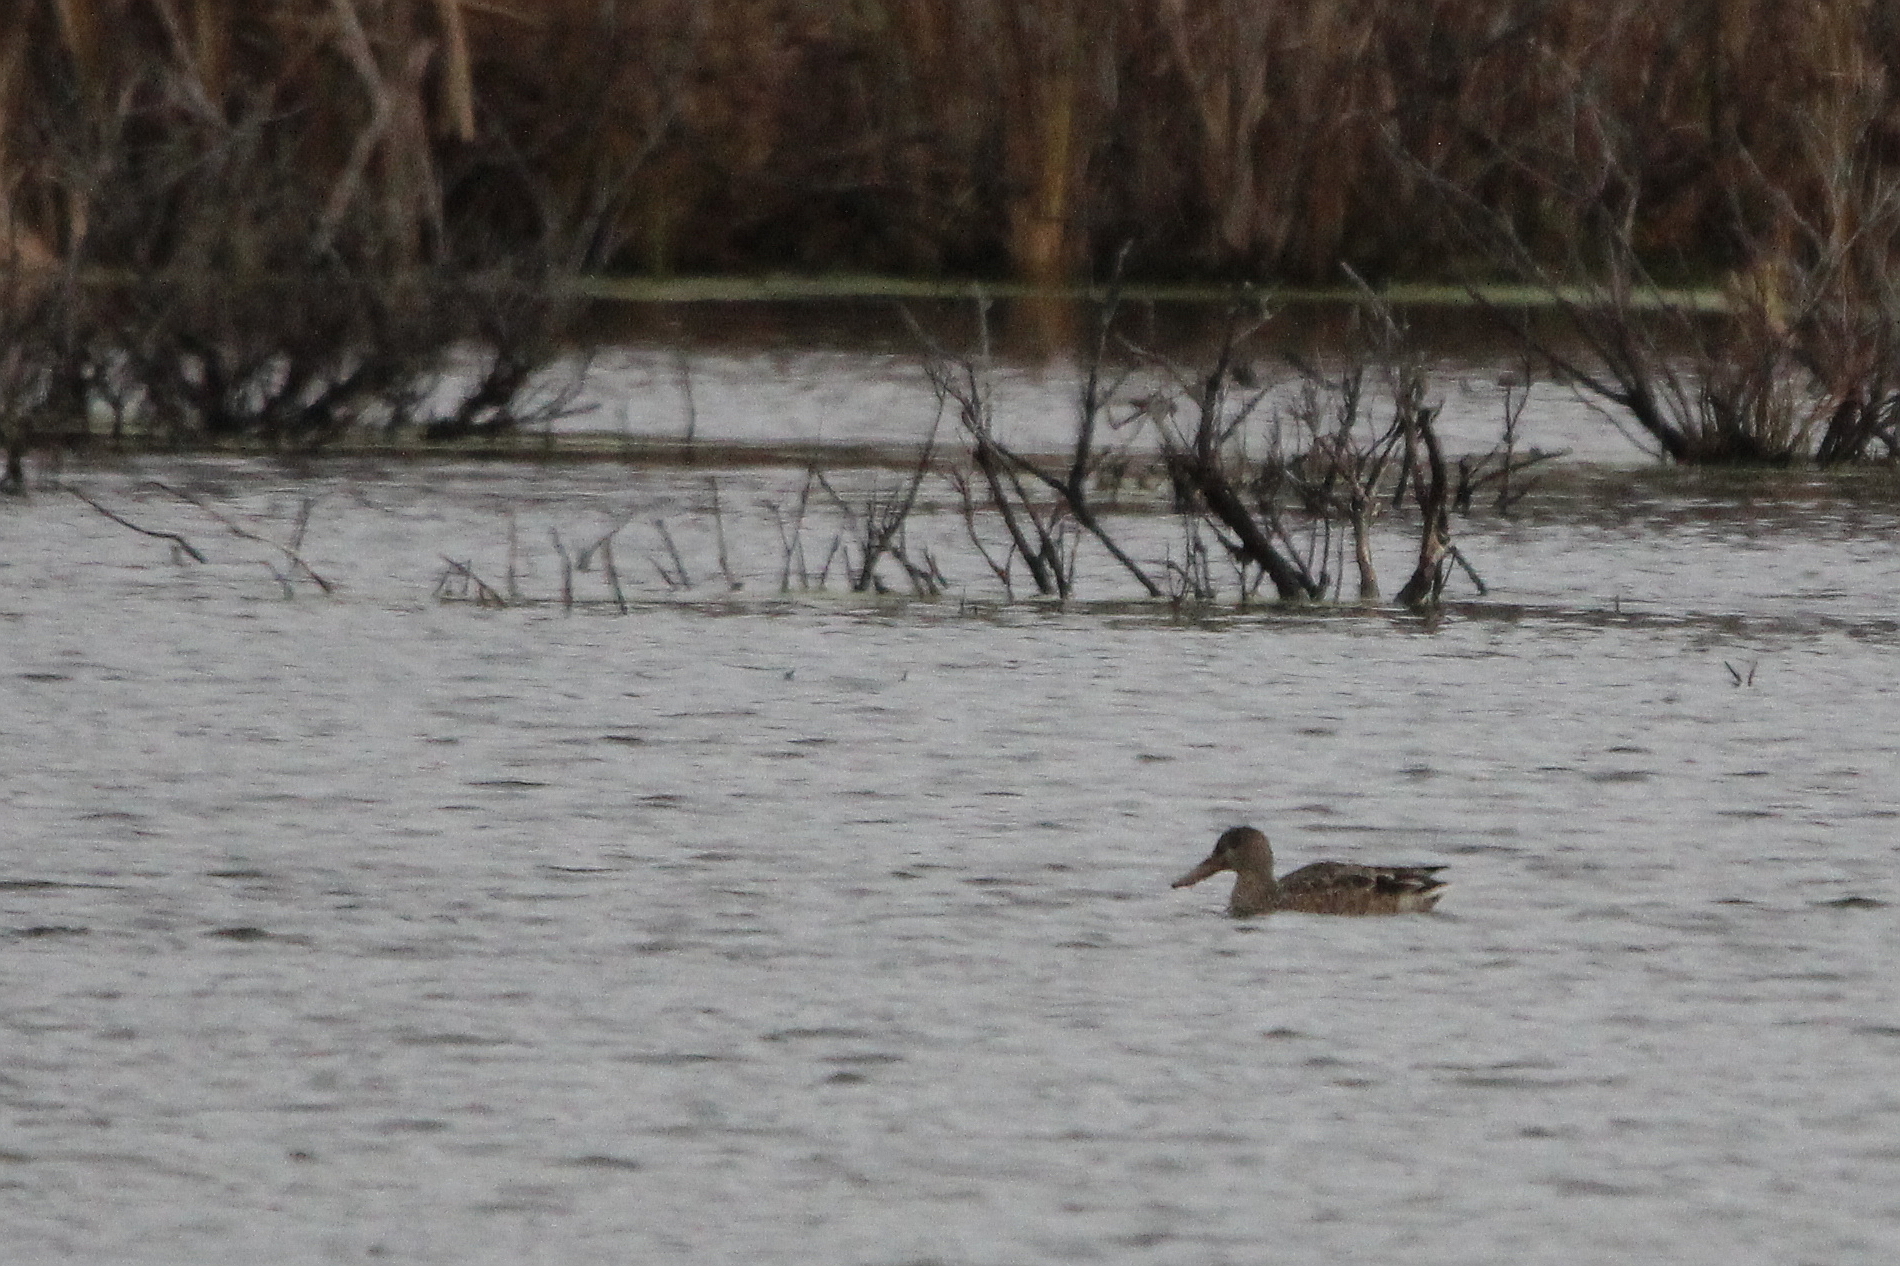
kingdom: Animalia
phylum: Chordata
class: Aves
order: Anseriformes
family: Anatidae
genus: Spatula
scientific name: Spatula clypeata
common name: Northern shoveler
